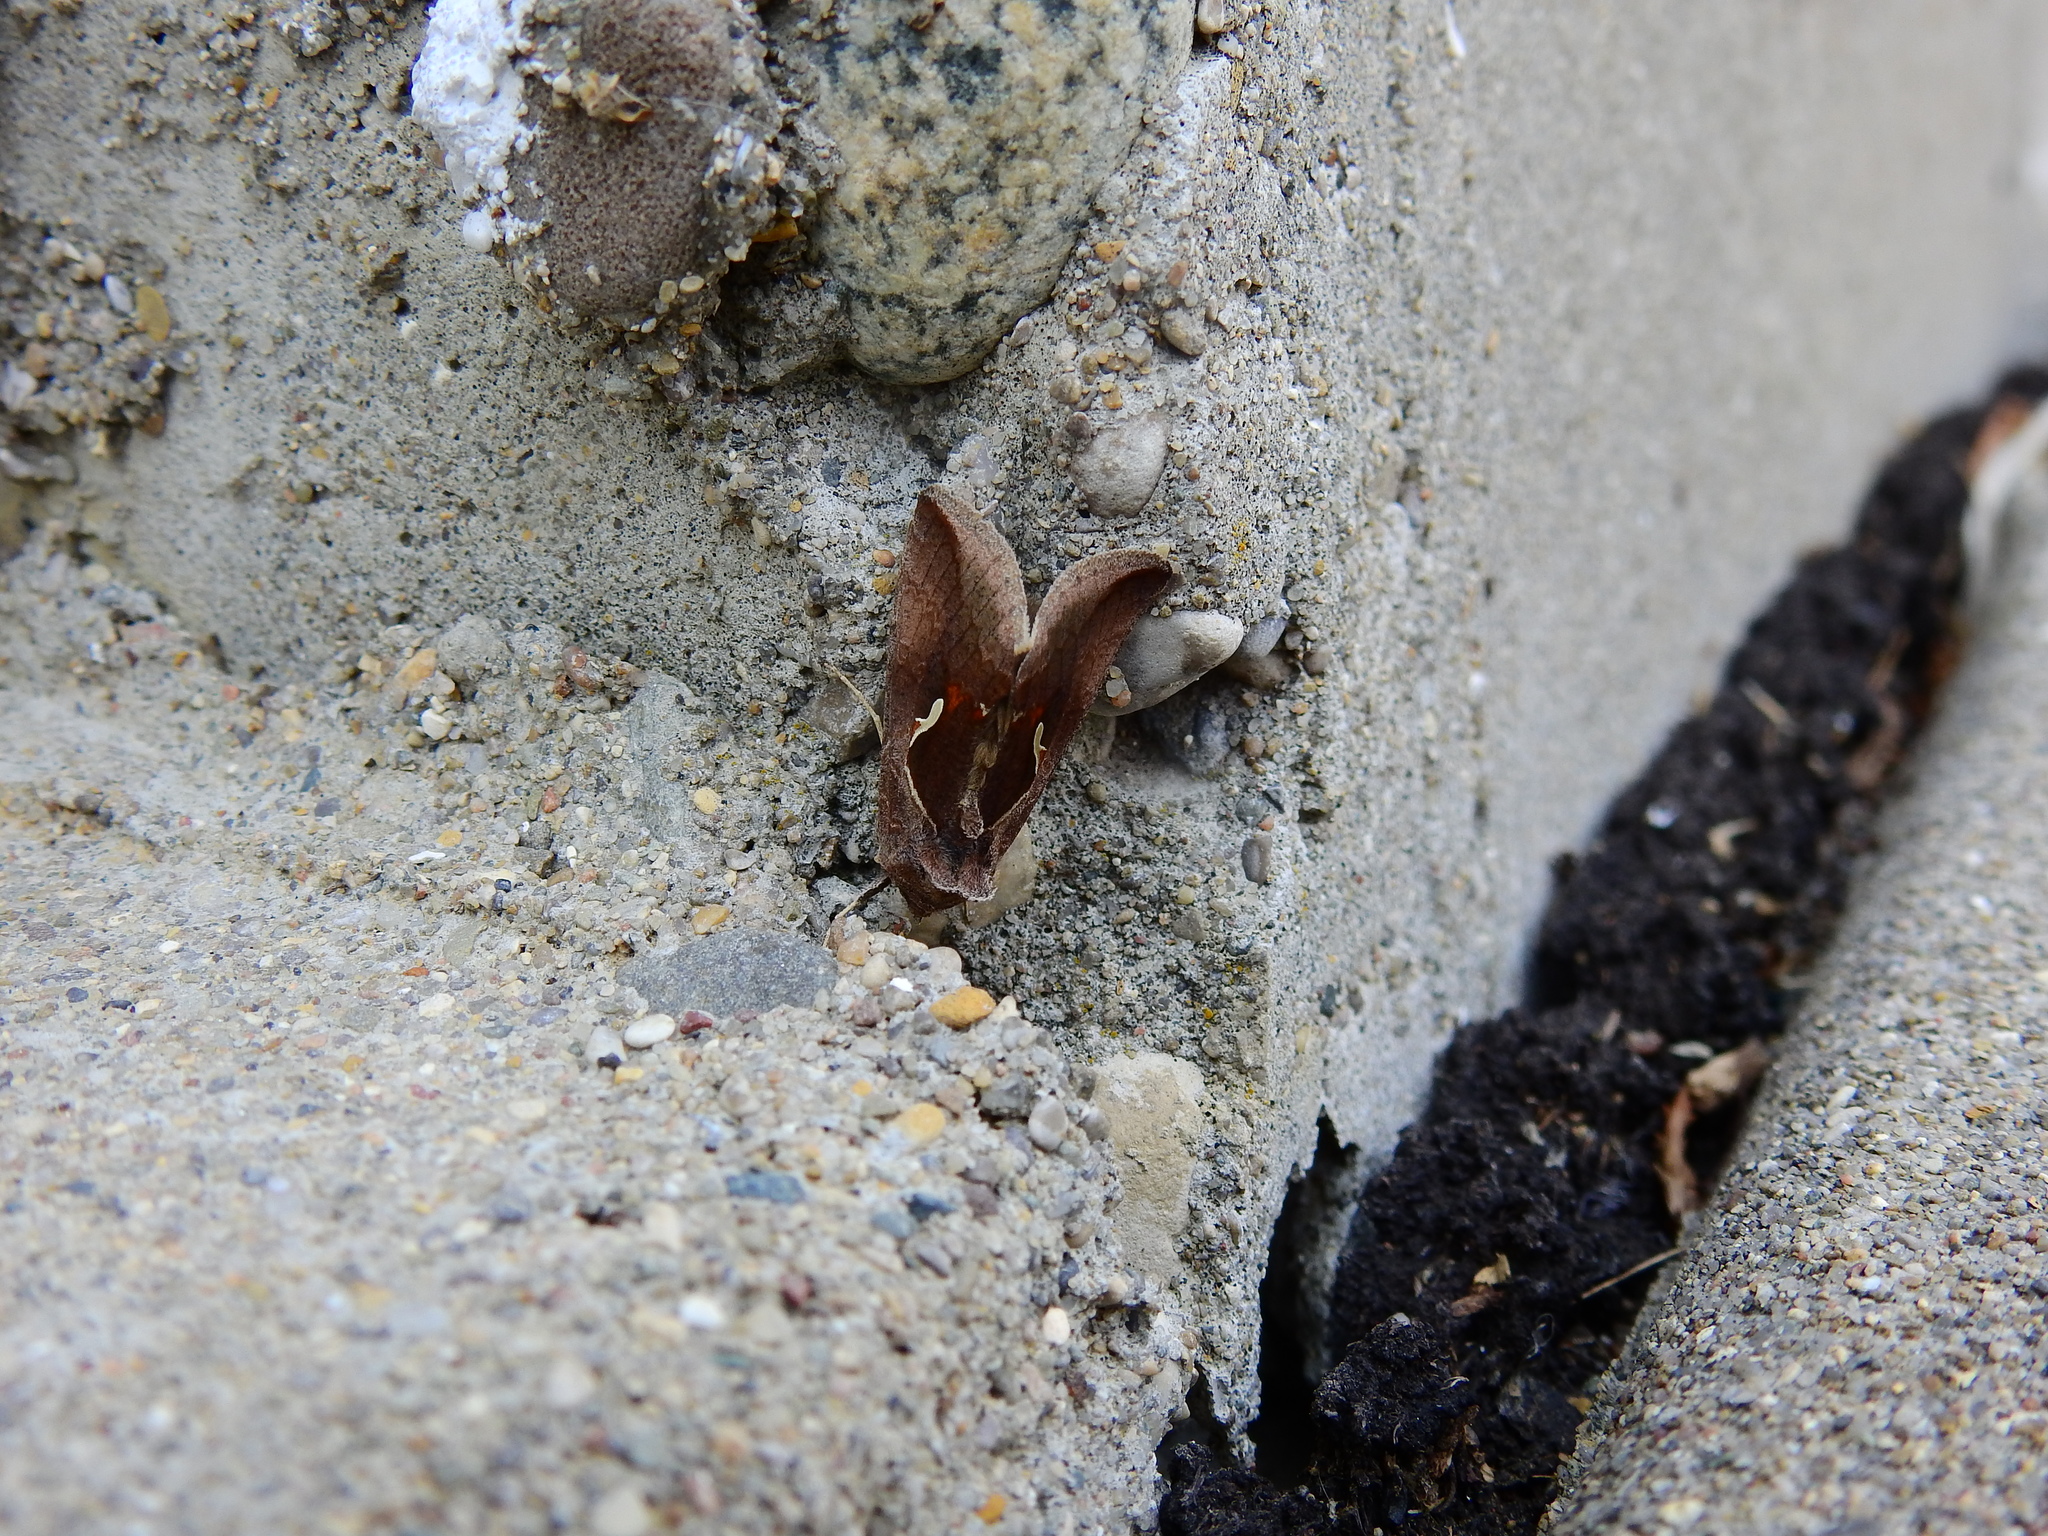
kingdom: Animalia
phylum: Arthropoda
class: Insecta
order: Lepidoptera
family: Noctuidae
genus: Anagrapha
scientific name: Anagrapha falcifera
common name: Celery looper
